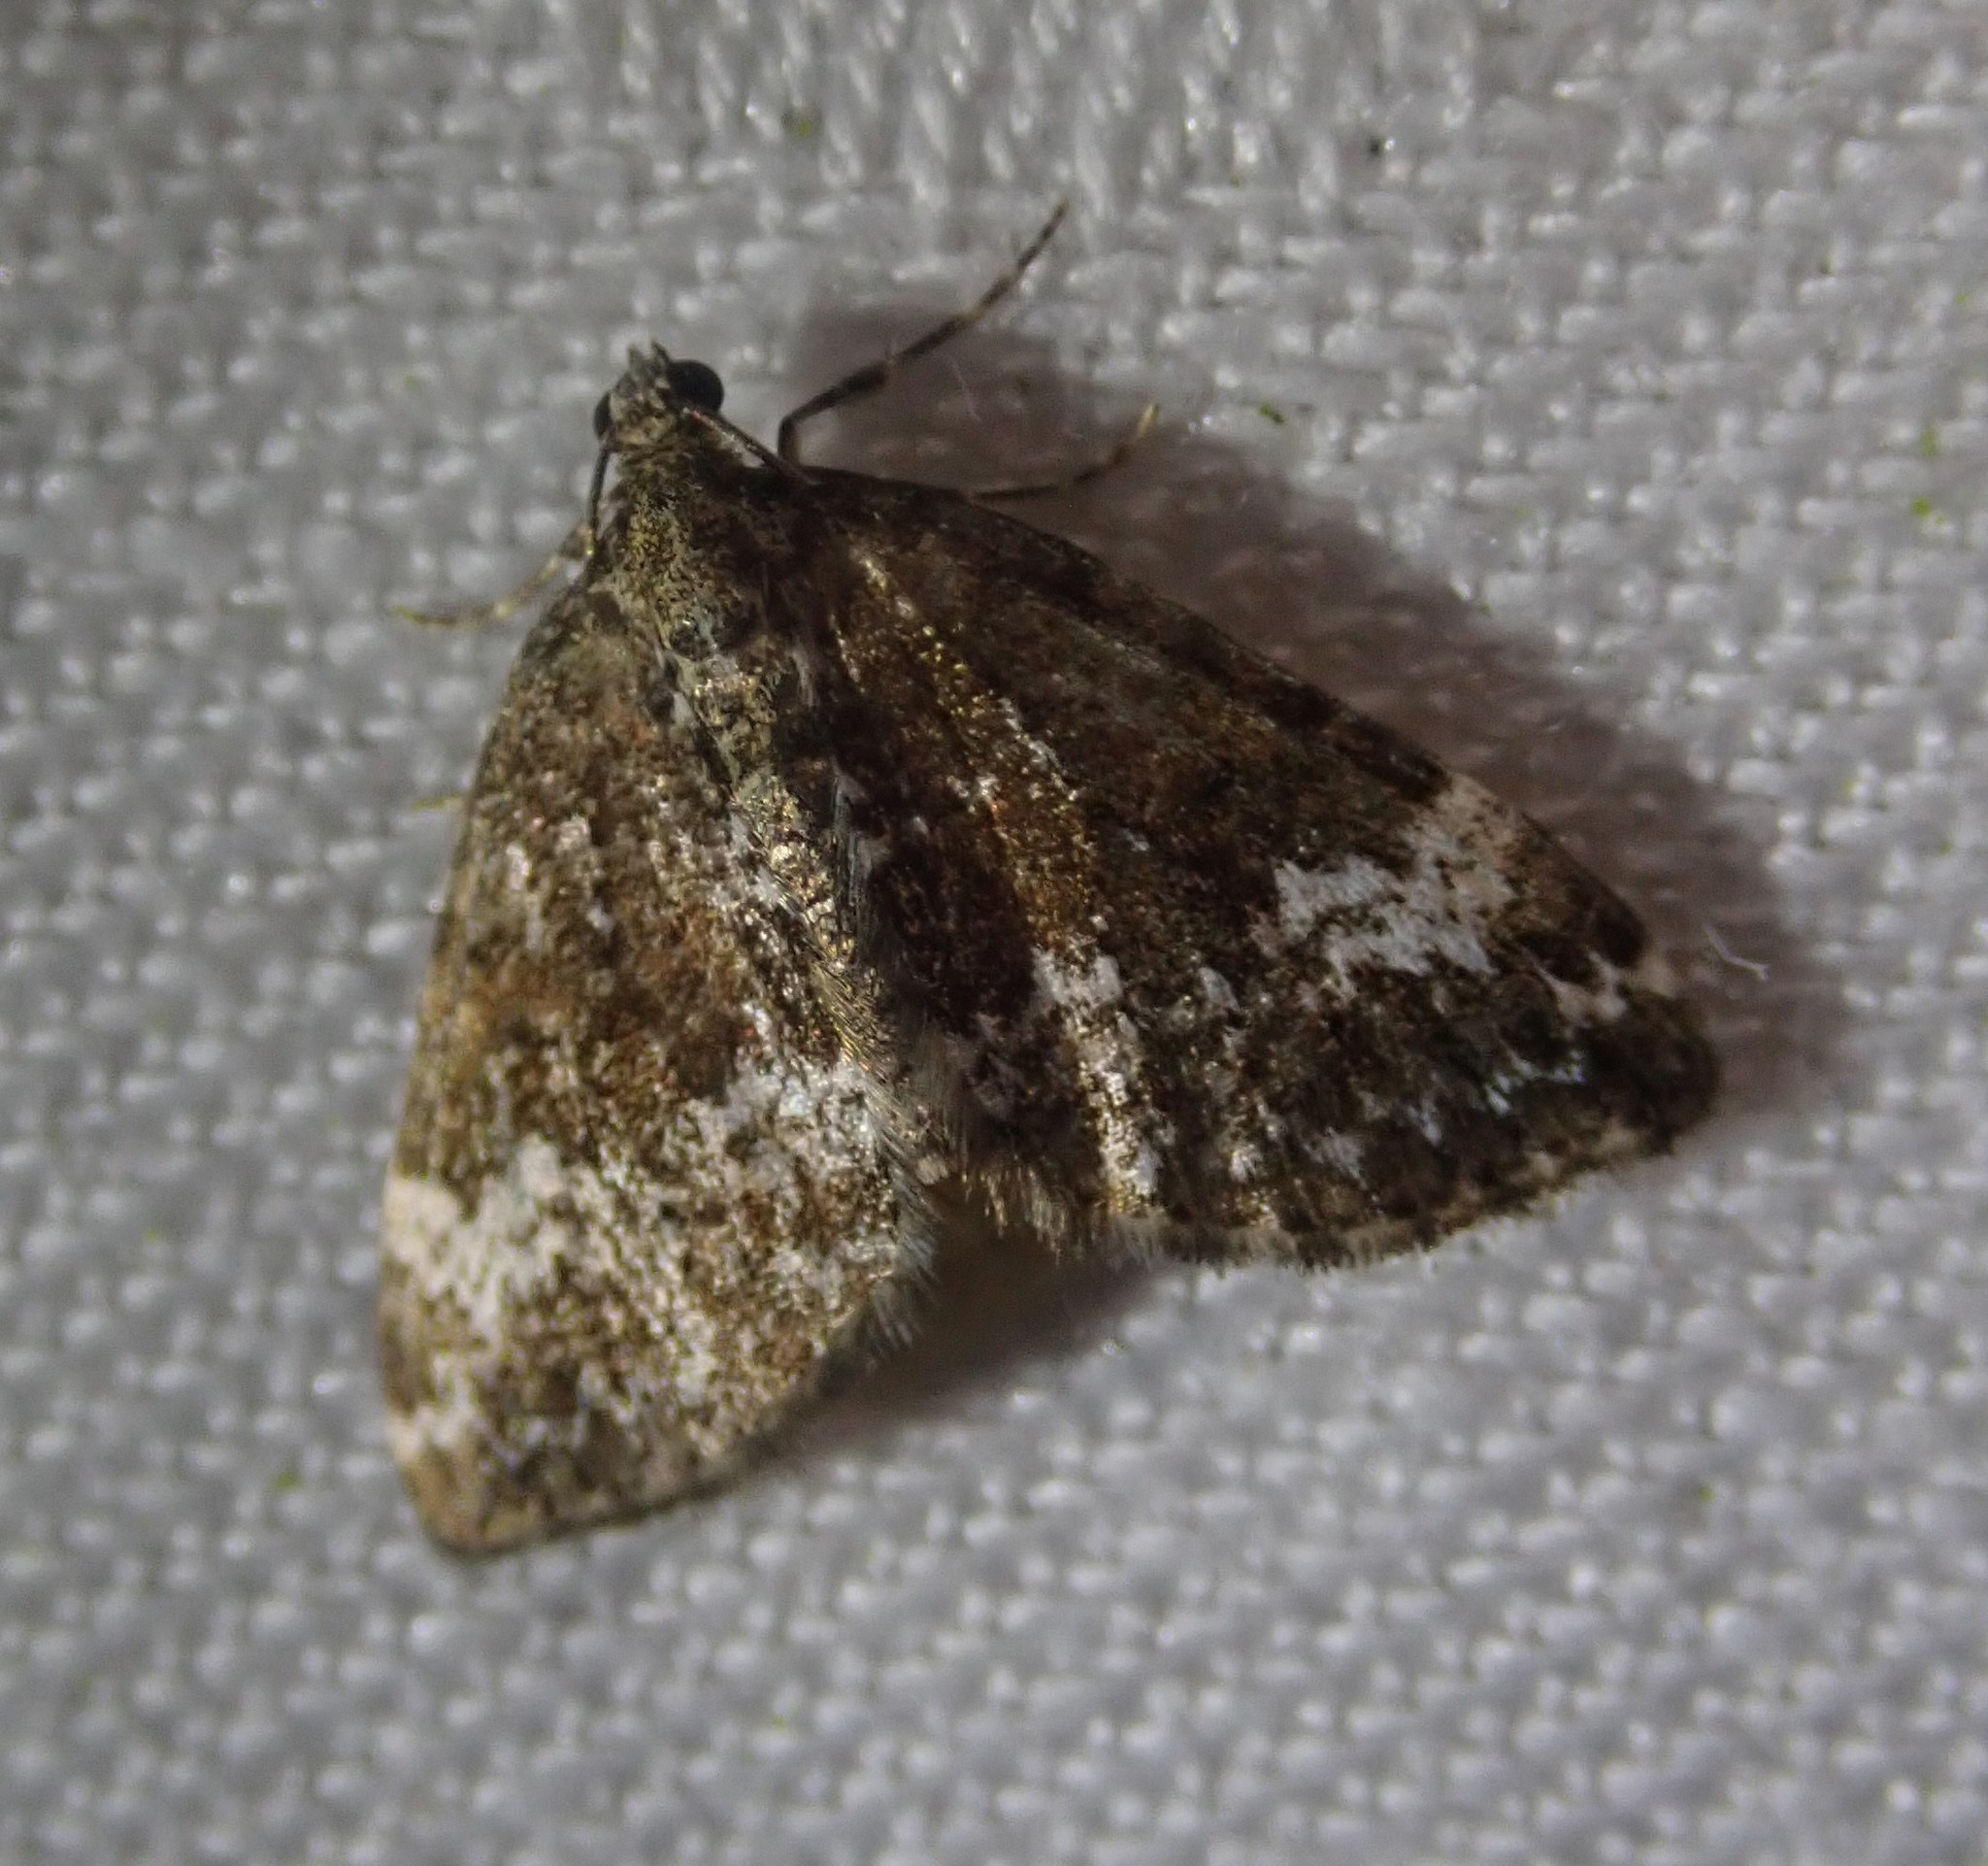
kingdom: Animalia
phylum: Arthropoda
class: Insecta
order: Lepidoptera
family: Geometridae
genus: Perizoma
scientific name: Perizoma alchemillata
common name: Small rivulet
